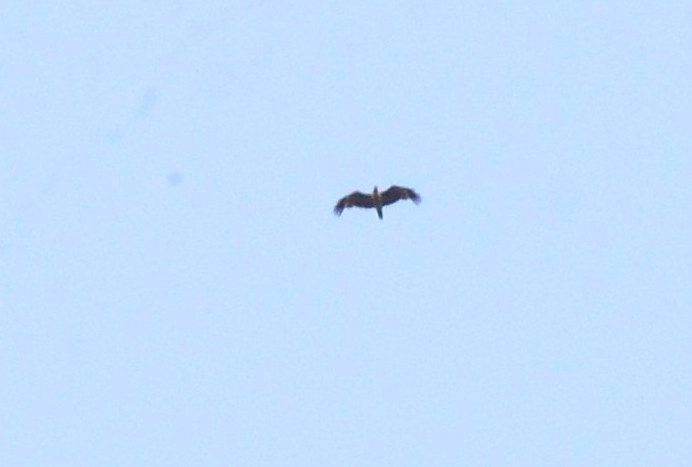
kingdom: Animalia
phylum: Chordata
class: Aves
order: Accipitriformes
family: Accipitridae
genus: Haliastur
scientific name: Haliastur indus
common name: Brahminy kite
